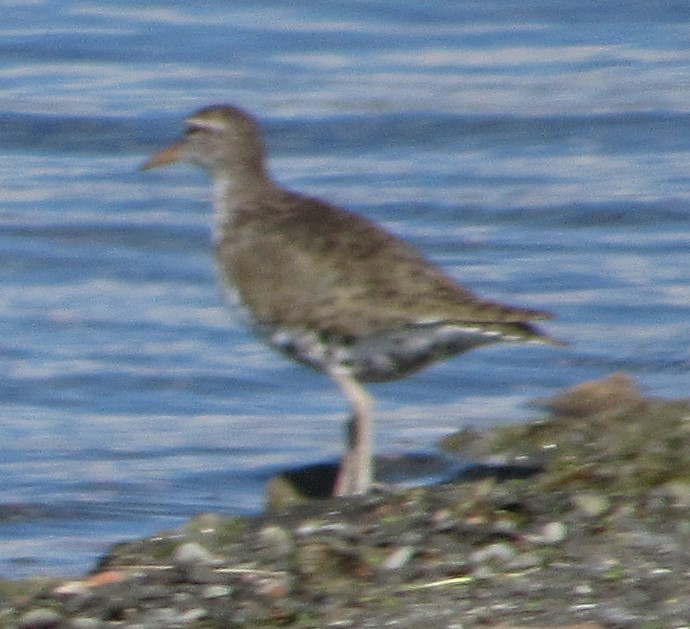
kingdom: Animalia
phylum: Chordata
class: Aves
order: Charadriiformes
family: Scolopacidae
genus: Actitis
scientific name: Actitis macularius
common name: Spotted sandpiper
